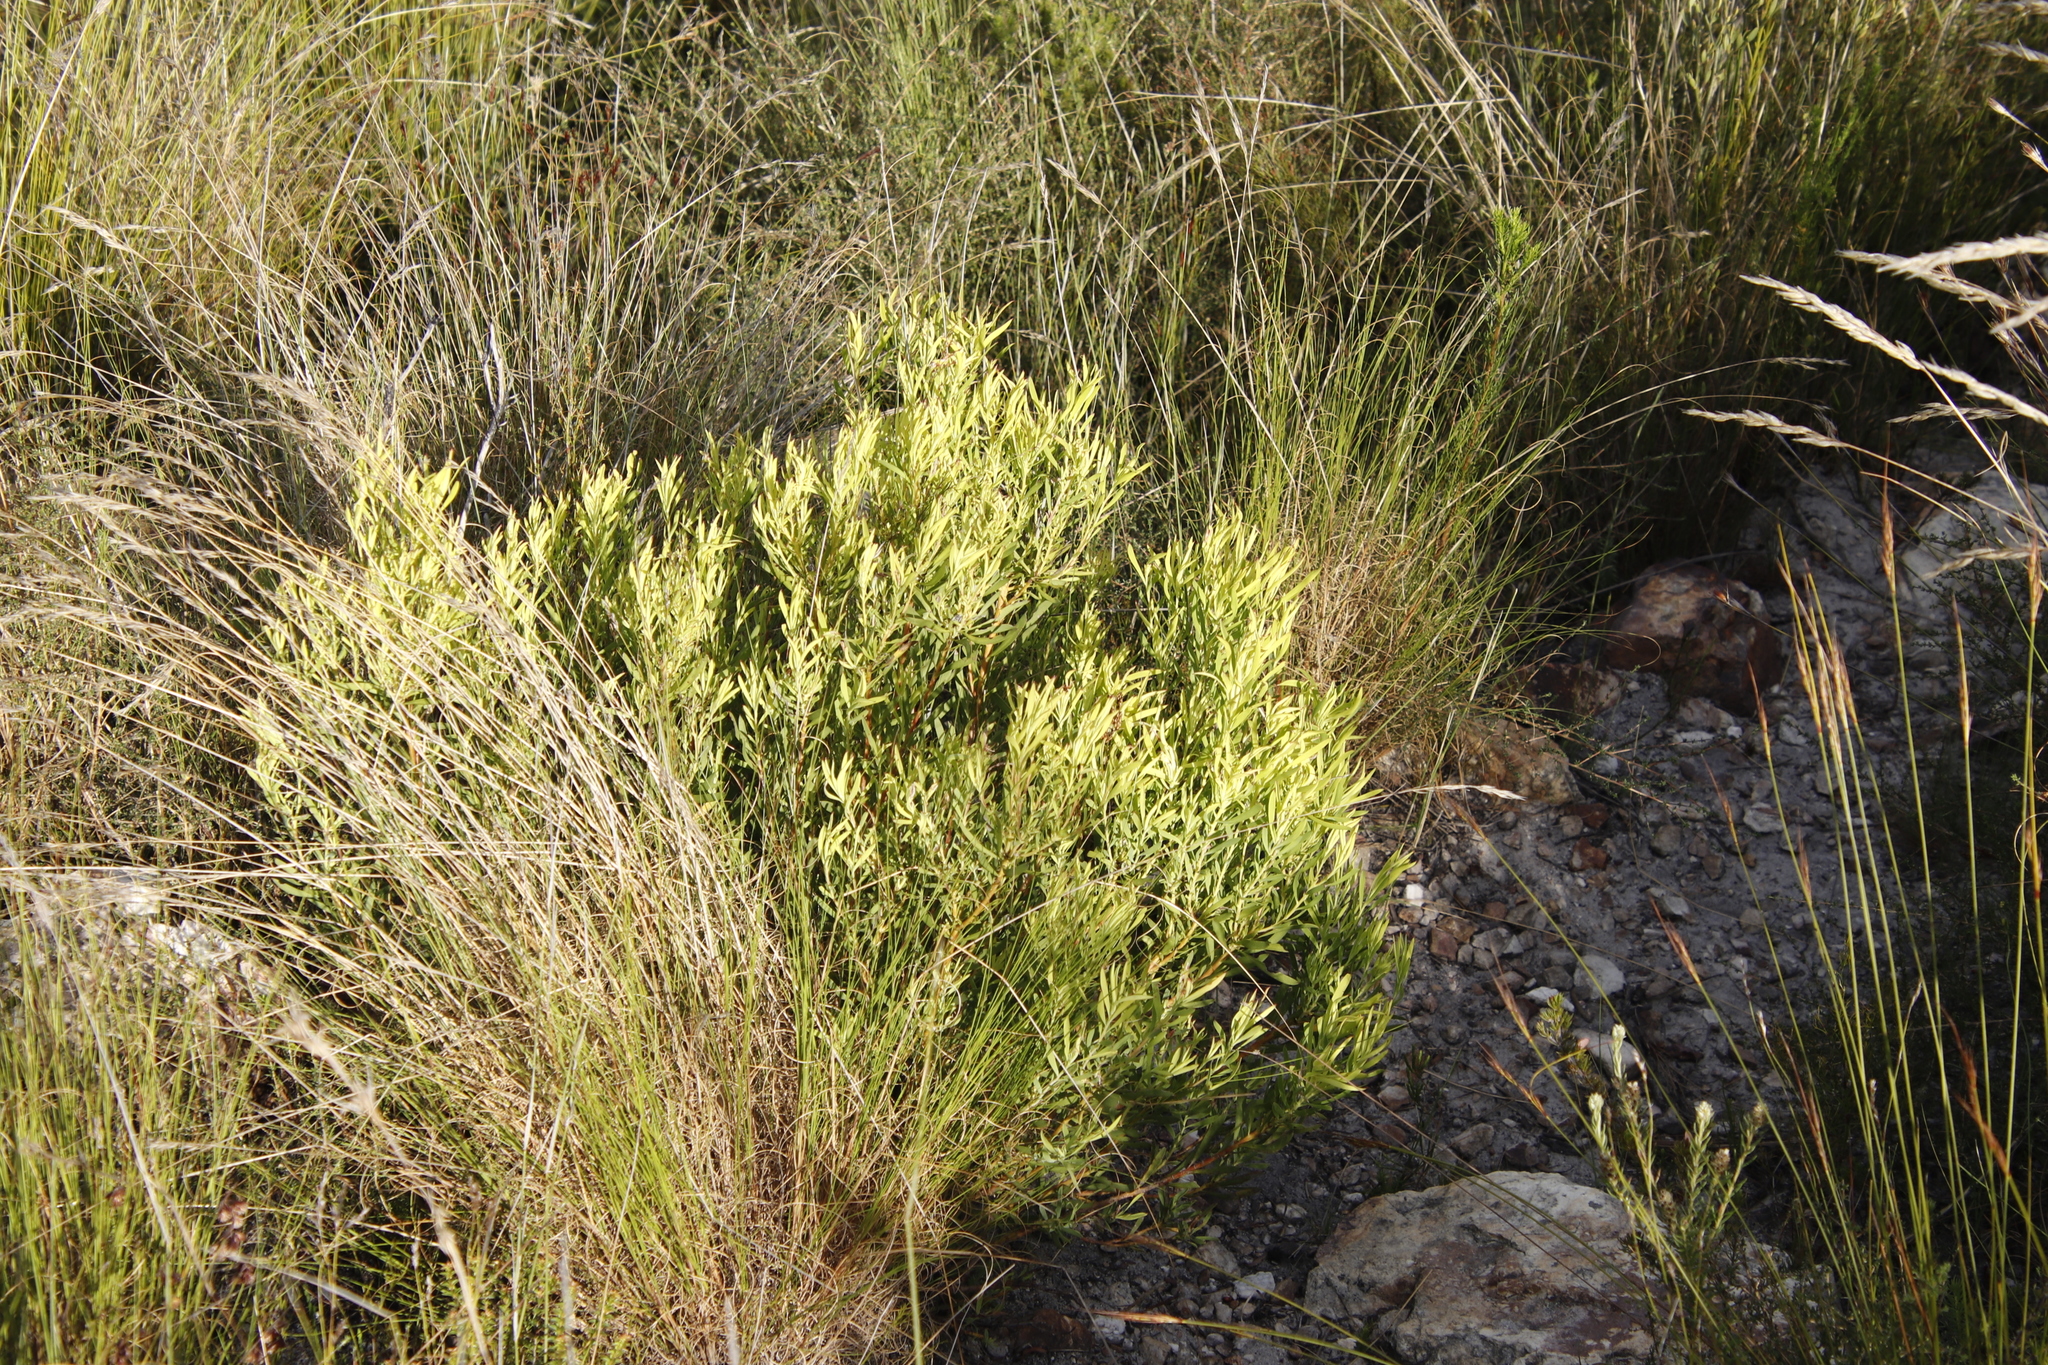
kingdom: Plantae
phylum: Tracheophyta
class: Magnoliopsida
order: Proteales
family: Proteaceae
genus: Leucadendron
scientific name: Leucadendron salignum
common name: Common sunshine conebush
